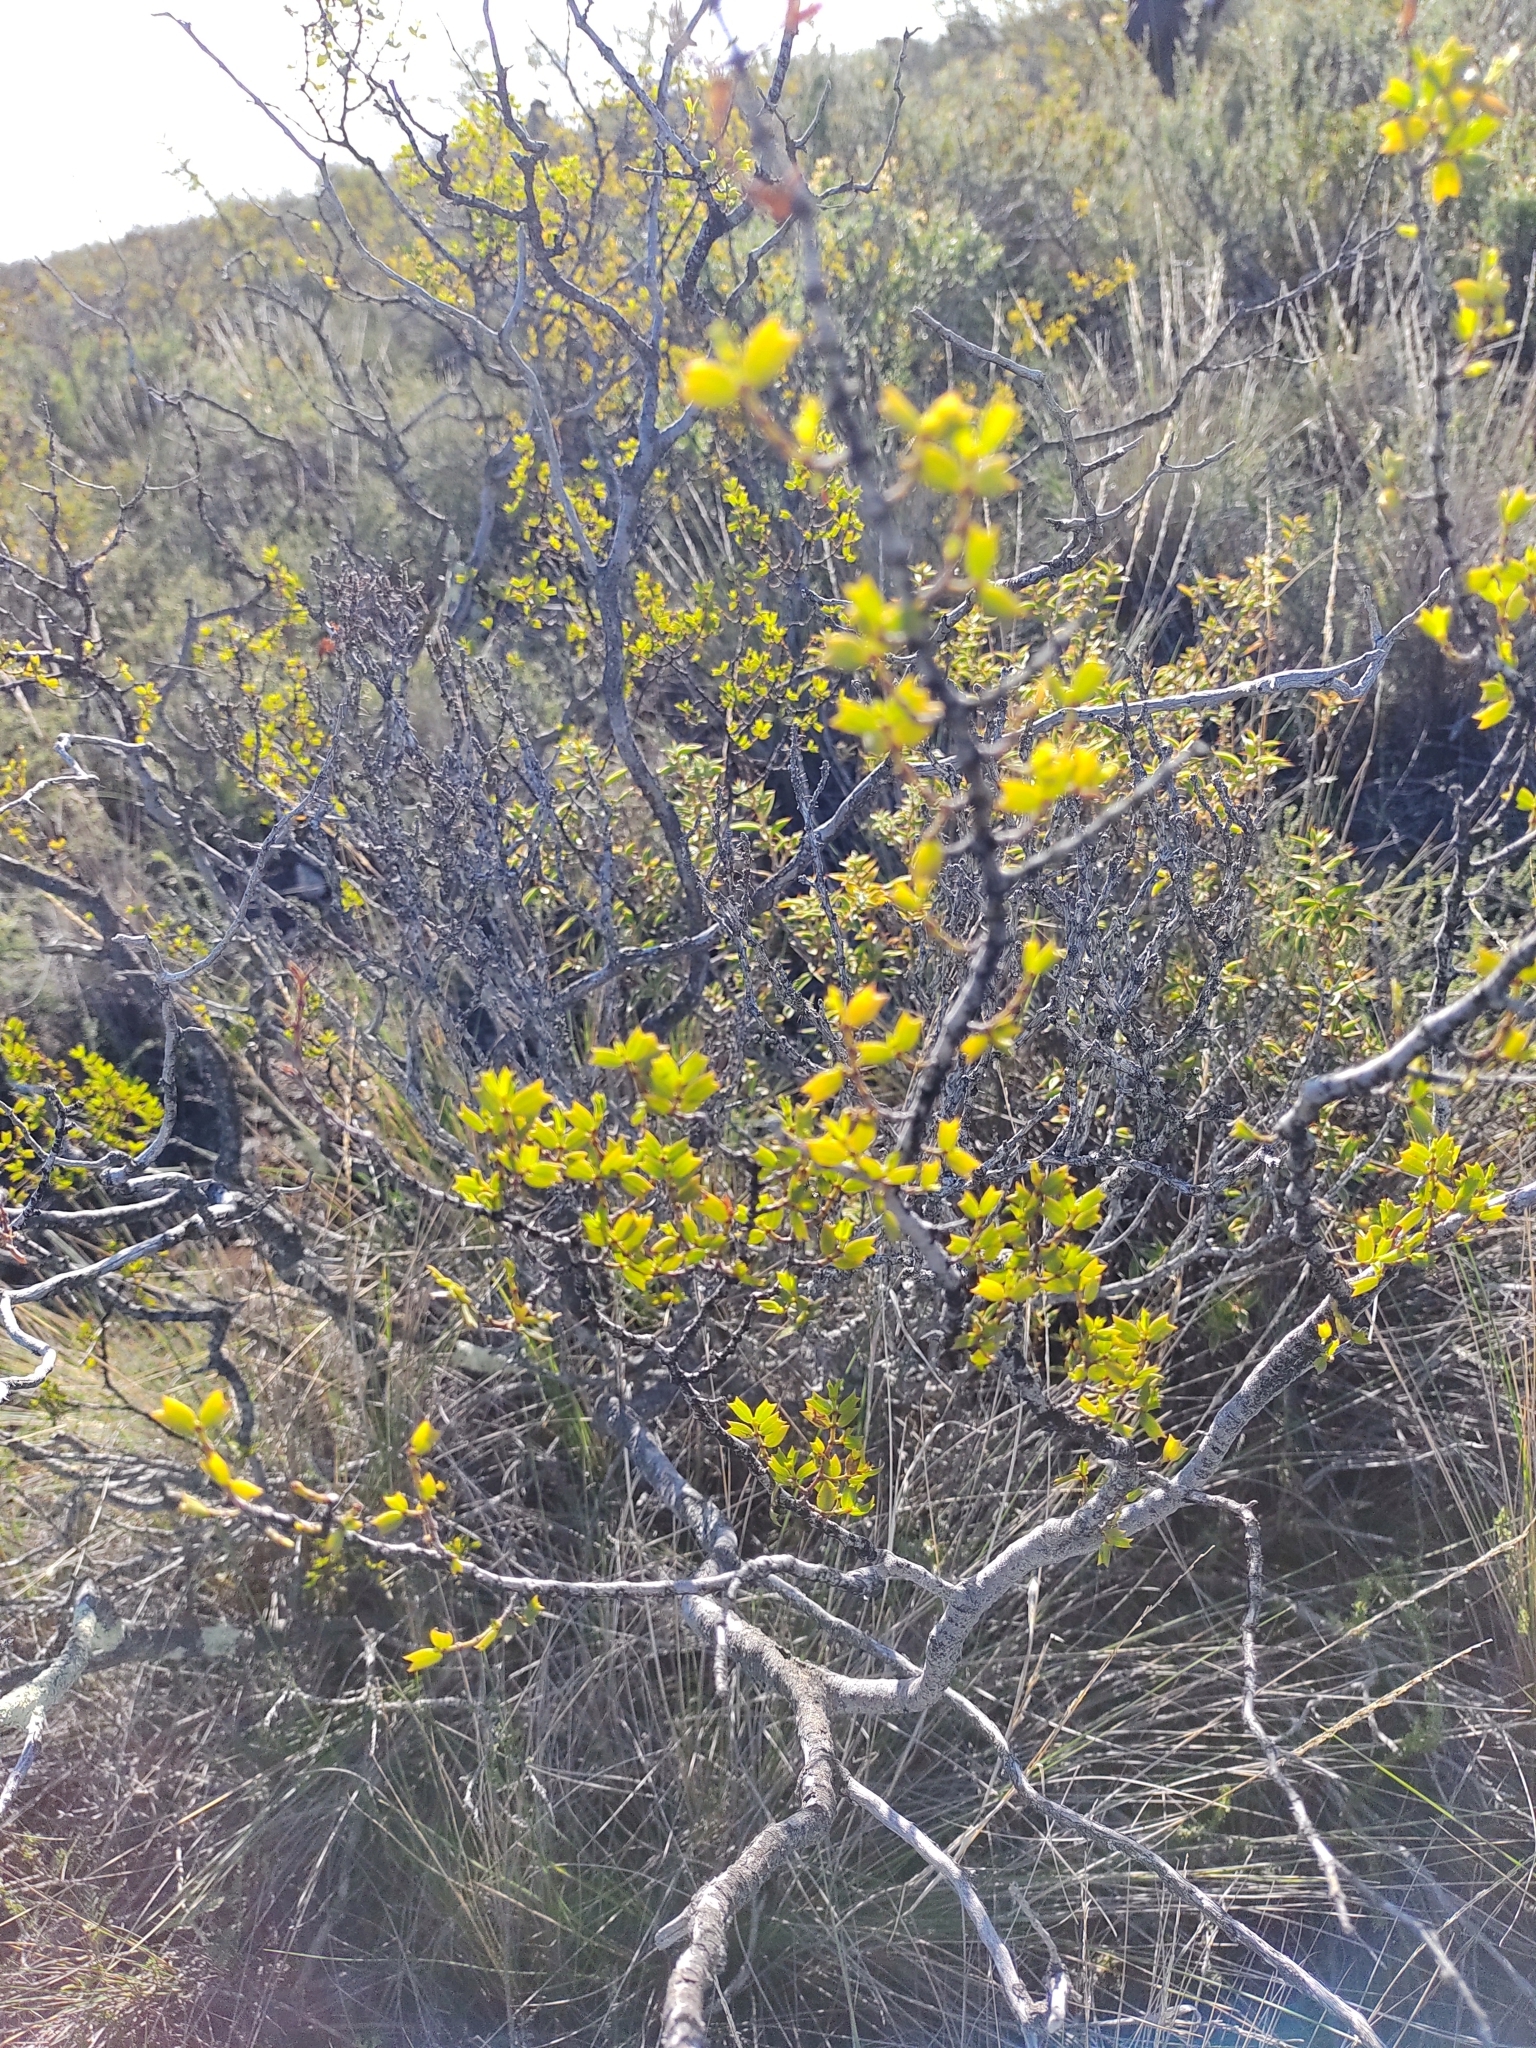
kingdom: Plantae
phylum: Tracheophyta
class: Magnoliopsida
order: Zygophyllales
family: Zygophyllaceae
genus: Larrea
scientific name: Larrea cuneifolia
